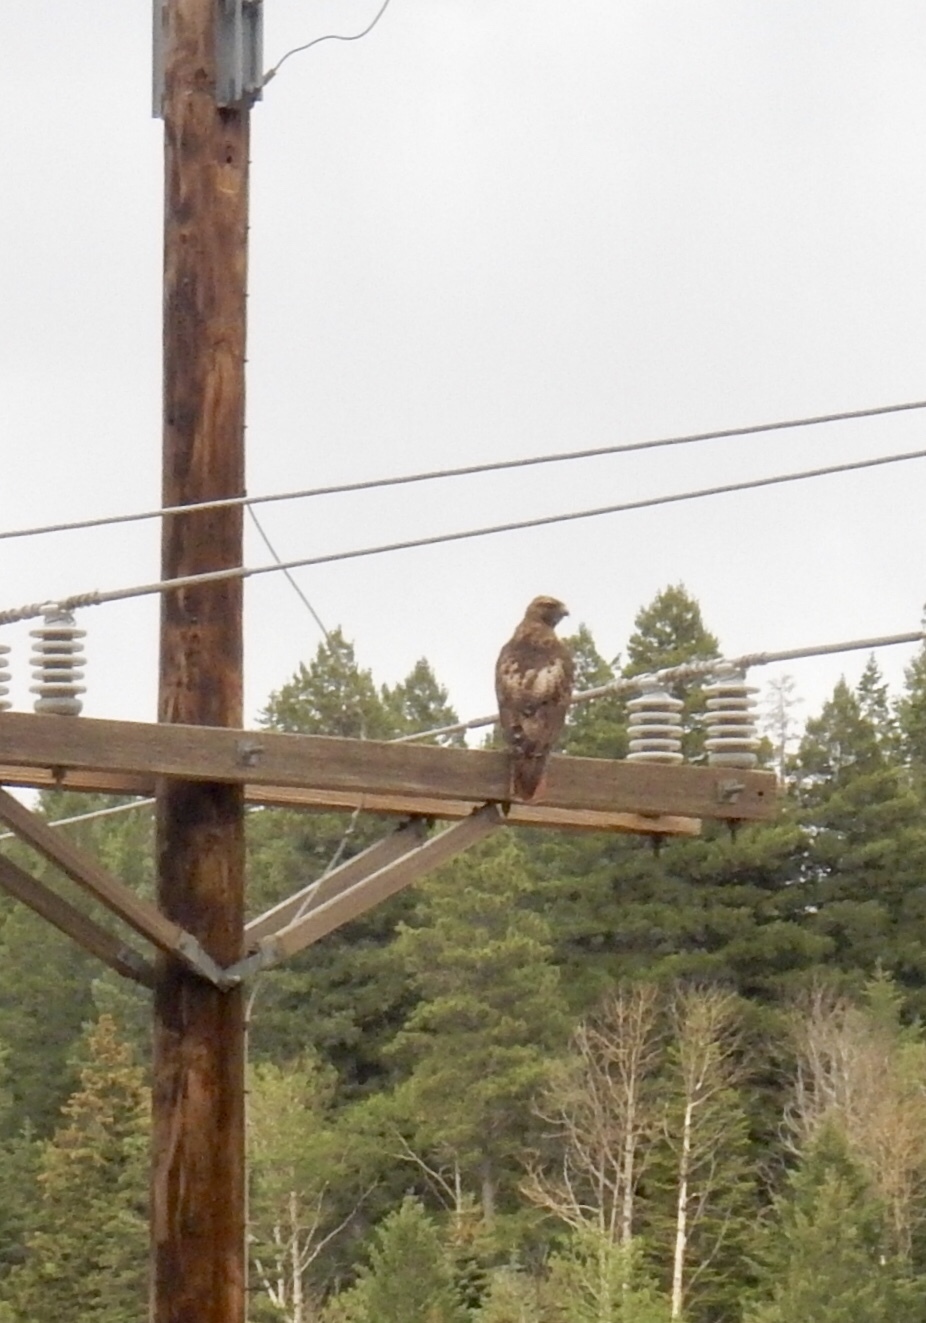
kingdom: Animalia
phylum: Chordata
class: Aves
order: Accipitriformes
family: Accipitridae
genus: Buteo
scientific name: Buteo jamaicensis
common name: Red-tailed hawk
